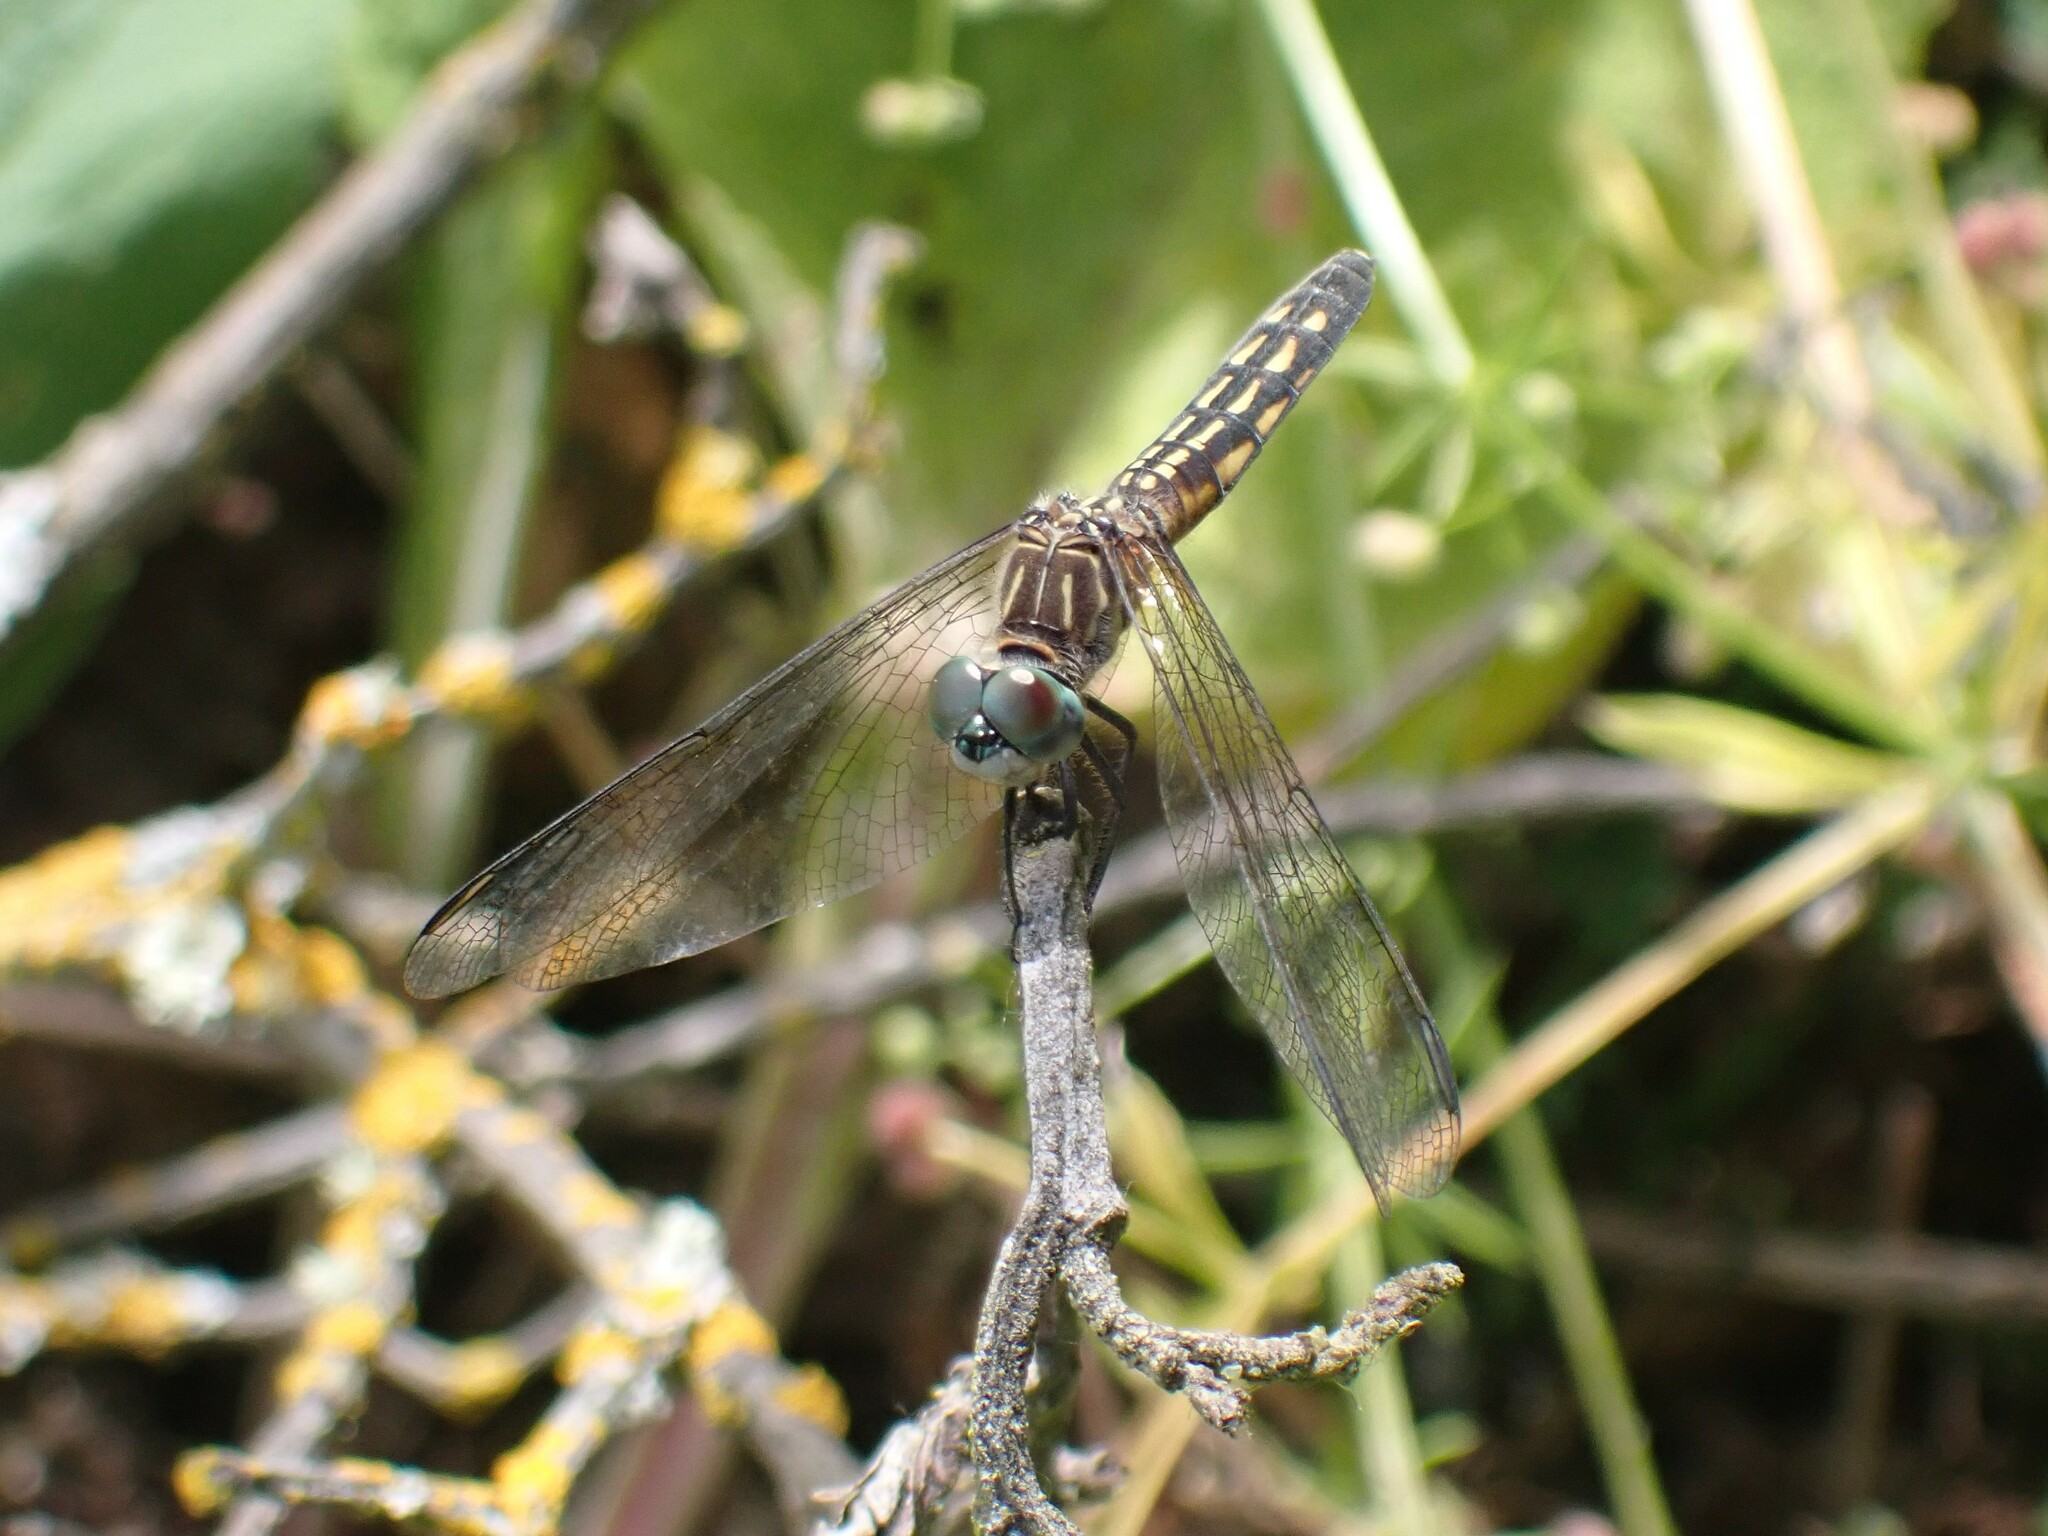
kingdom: Animalia
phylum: Arthropoda
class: Insecta
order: Odonata
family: Libellulidae
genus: Pachydiplax
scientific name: Pachydiplax longipennis
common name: Blue dasher
